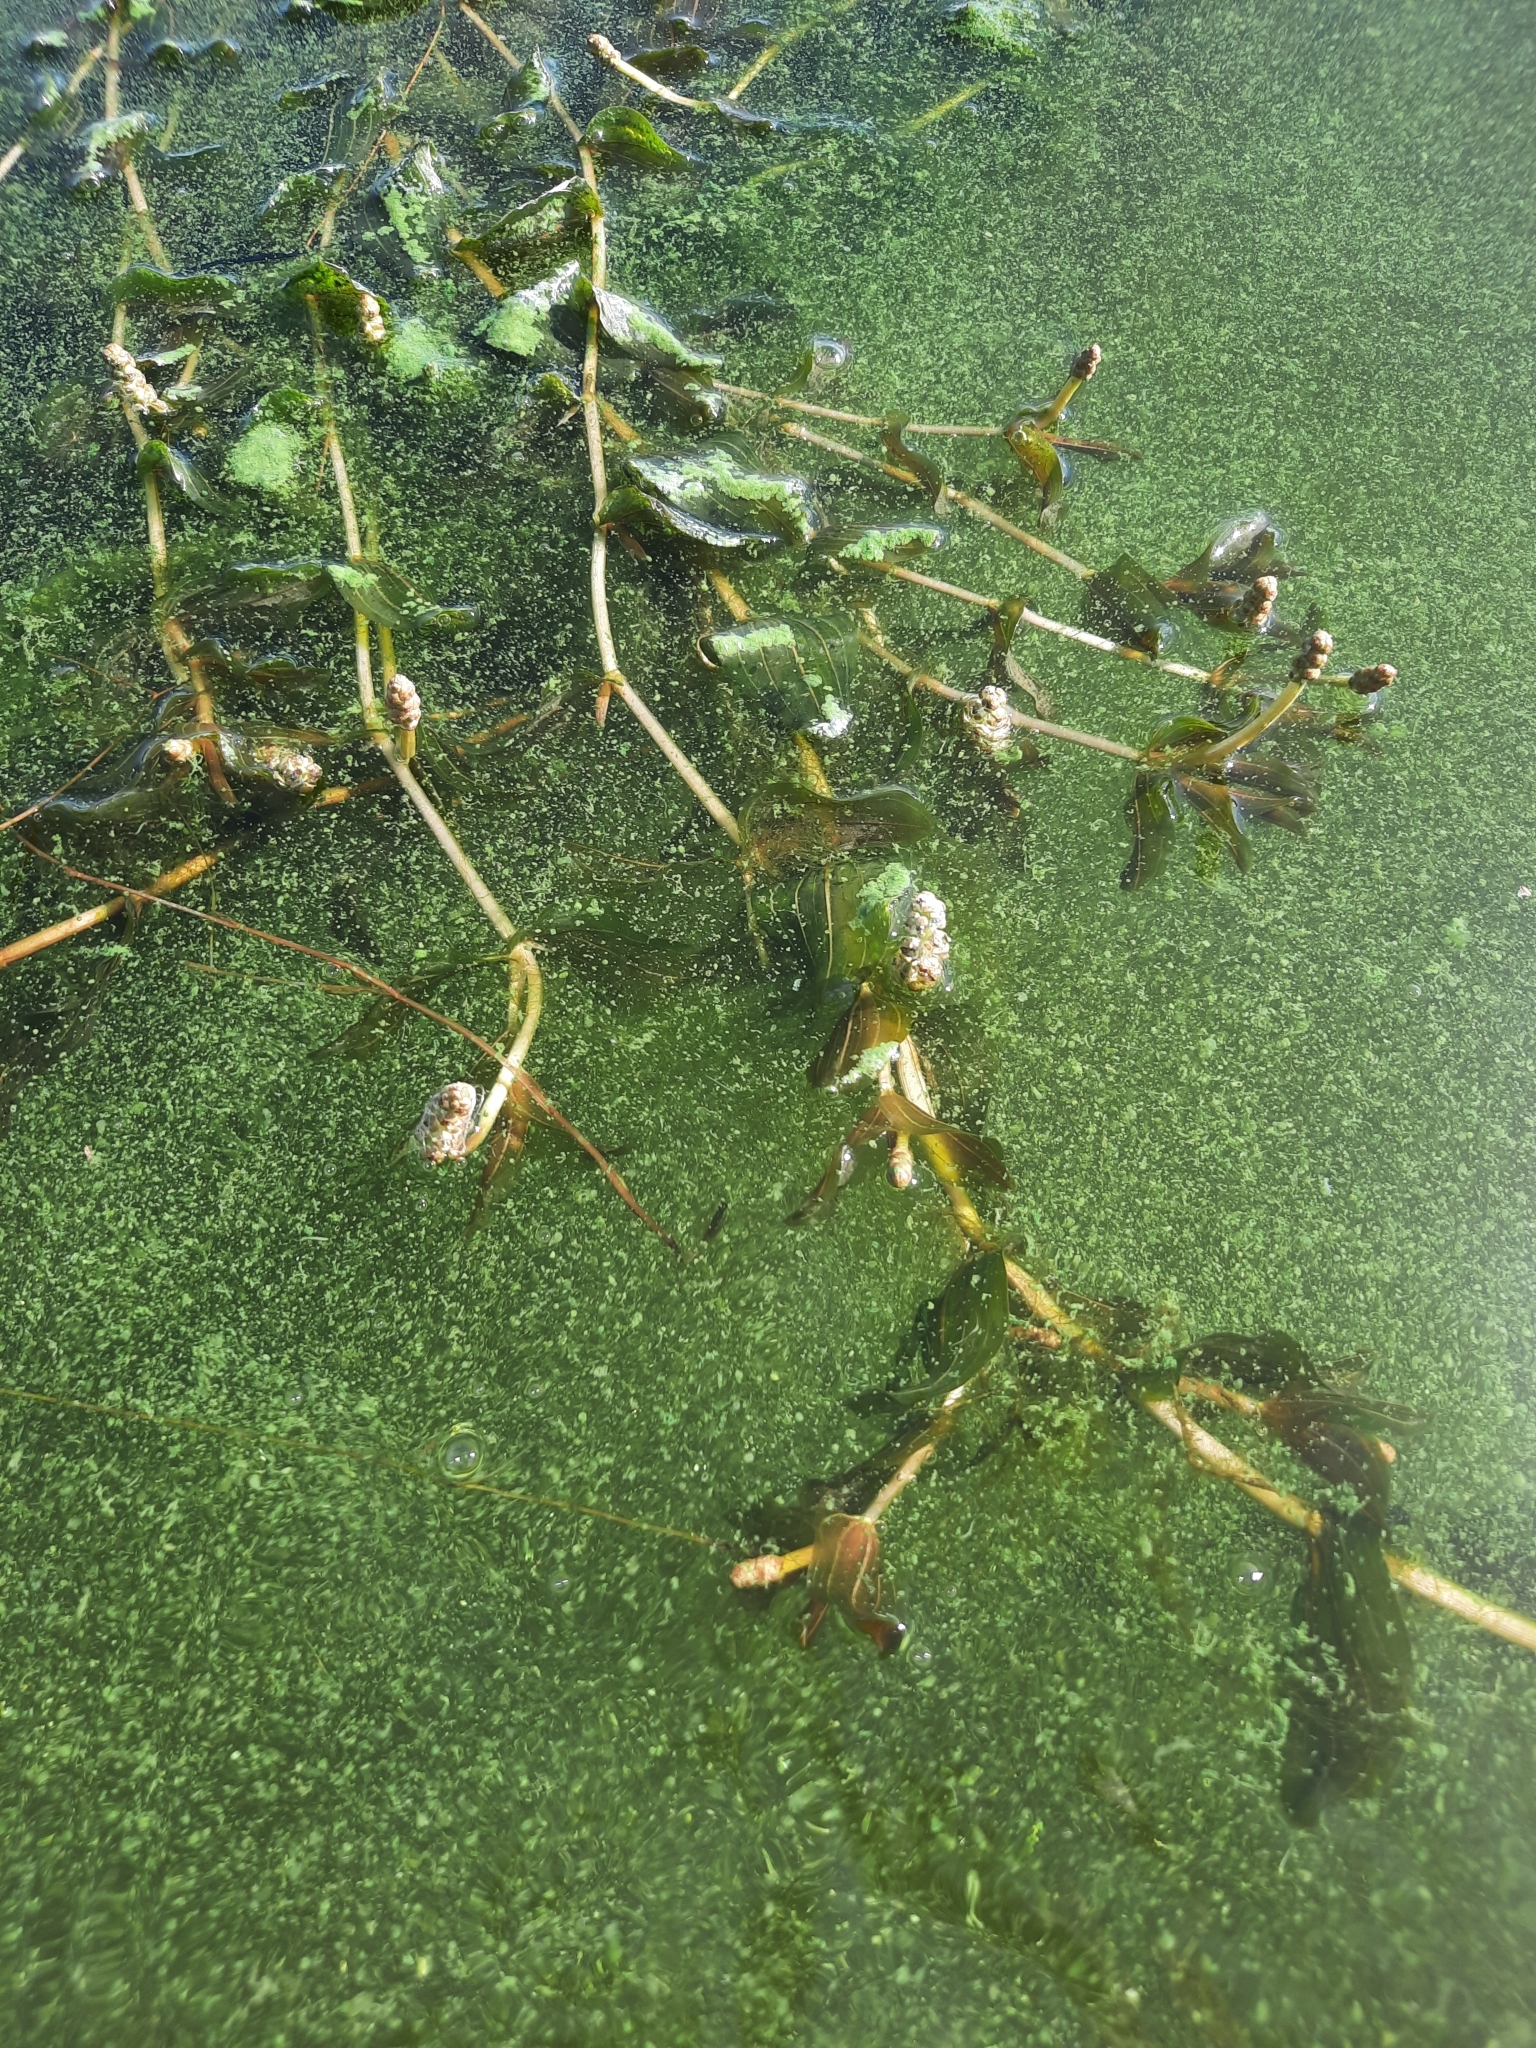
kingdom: Plantae
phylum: Tracheophyta
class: Liliopsida
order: Alismatales
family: Potamogetonaceae
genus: Potamogeton
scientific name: Potamogeton perfoliatus
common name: Perfoliate pondweed
